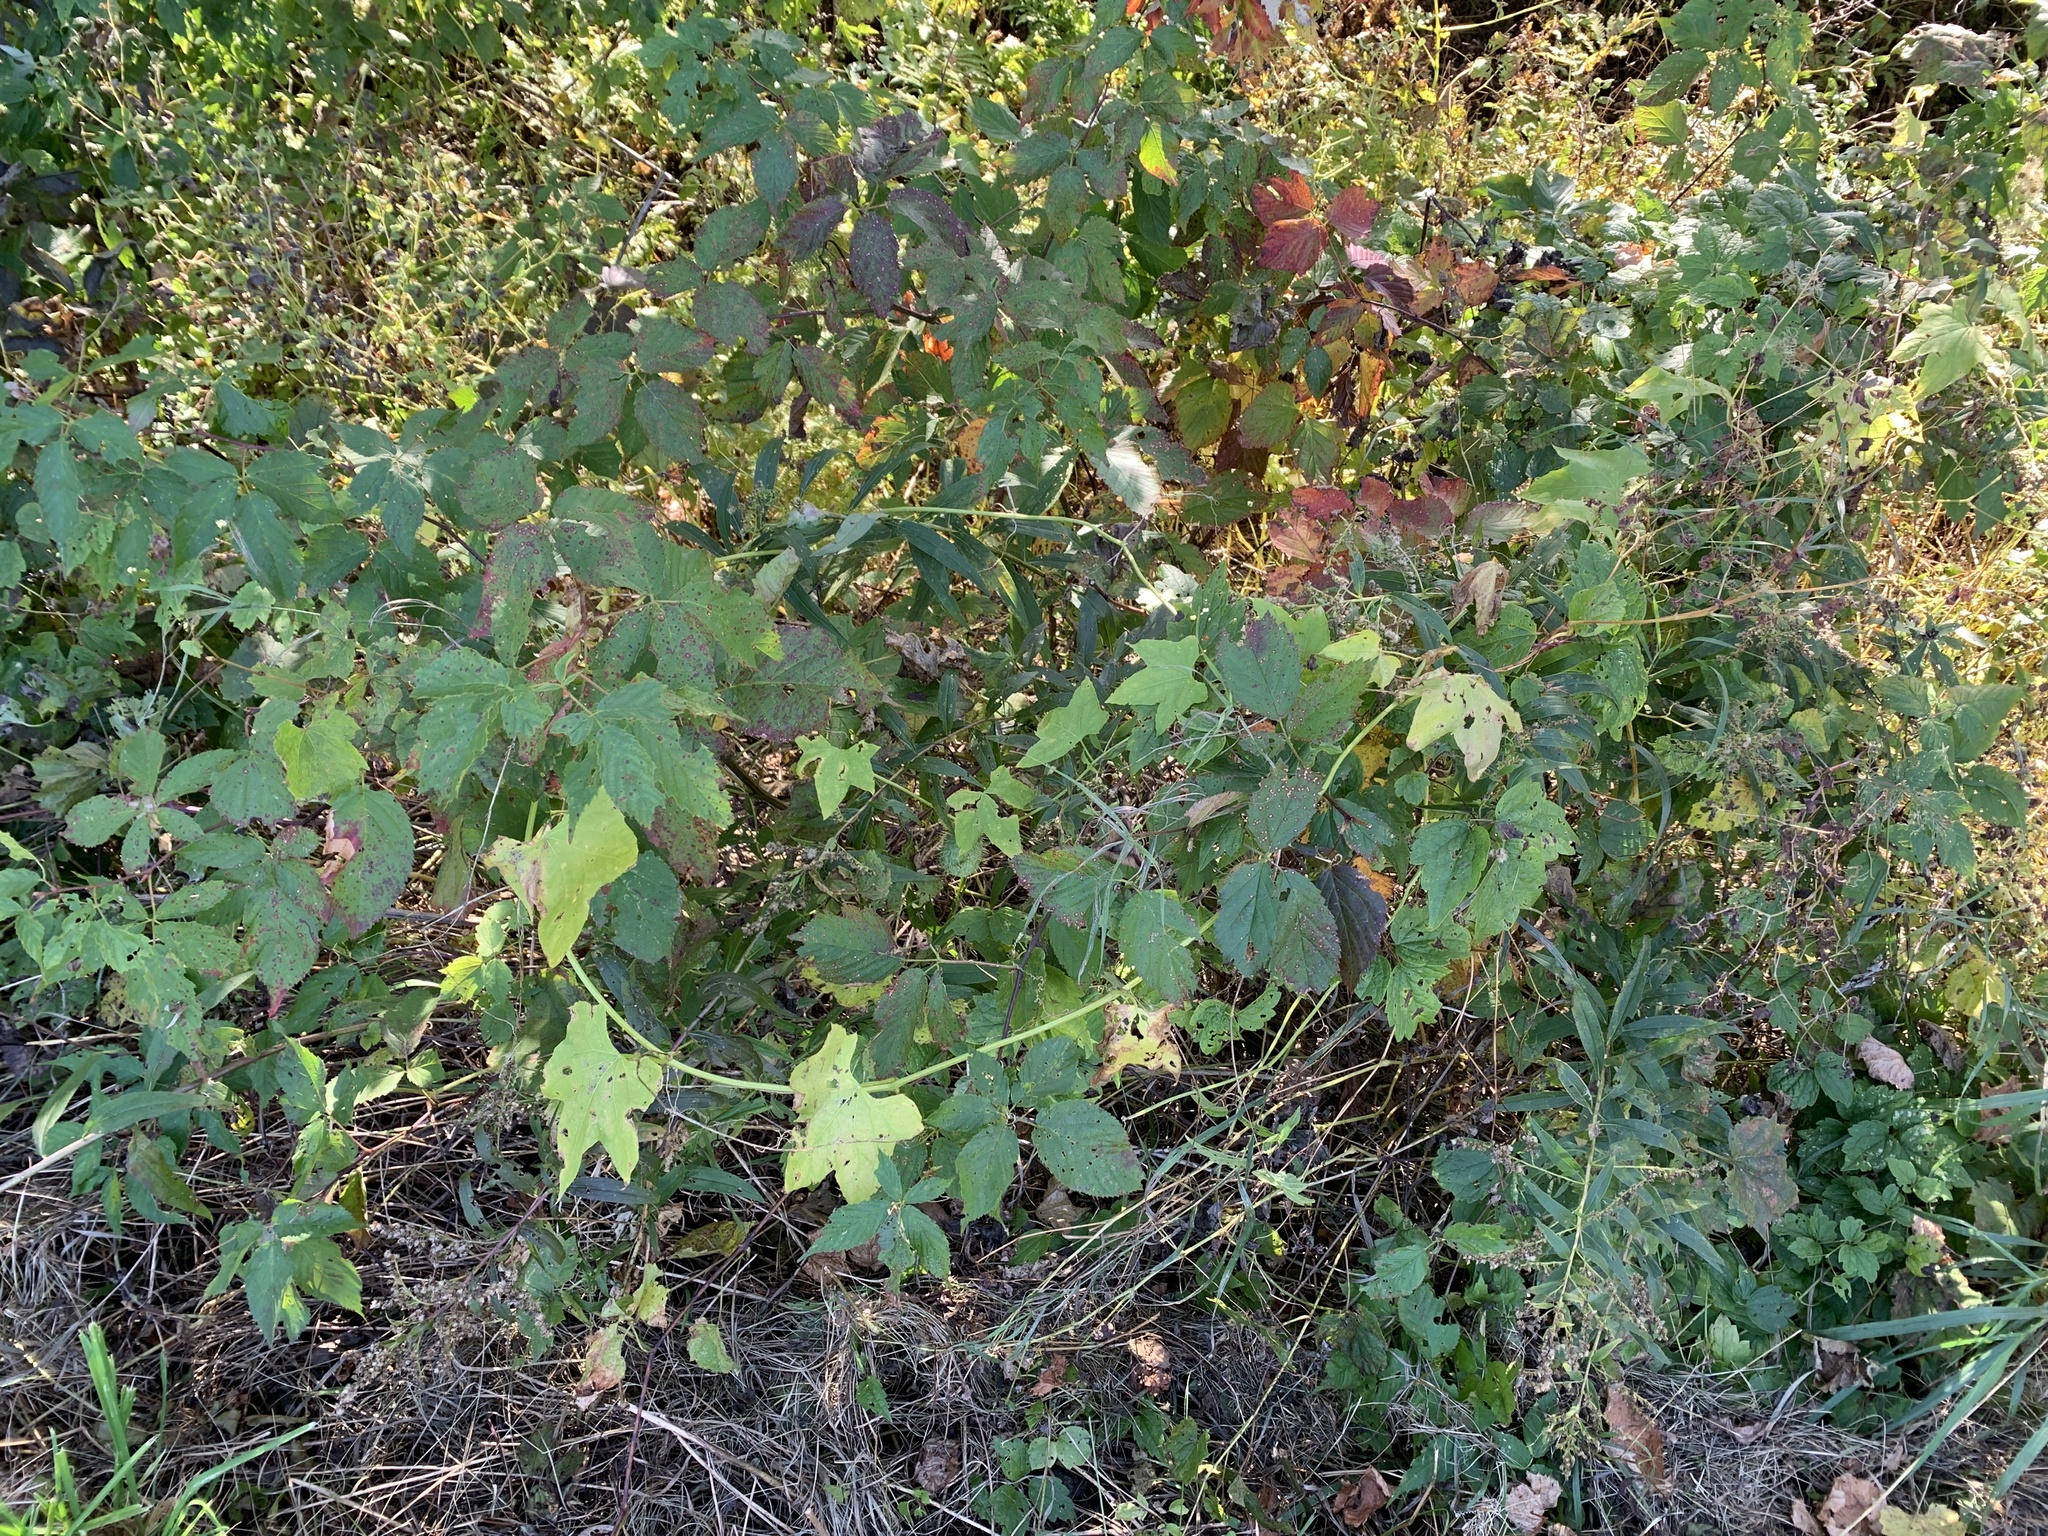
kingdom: Plantae
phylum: Tracheophyta
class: Magnoliopsida
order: Cucurbitales
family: Cucurbitaceae
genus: Echinocystis
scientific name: Echinocystis lobata
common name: Wild cucumber
